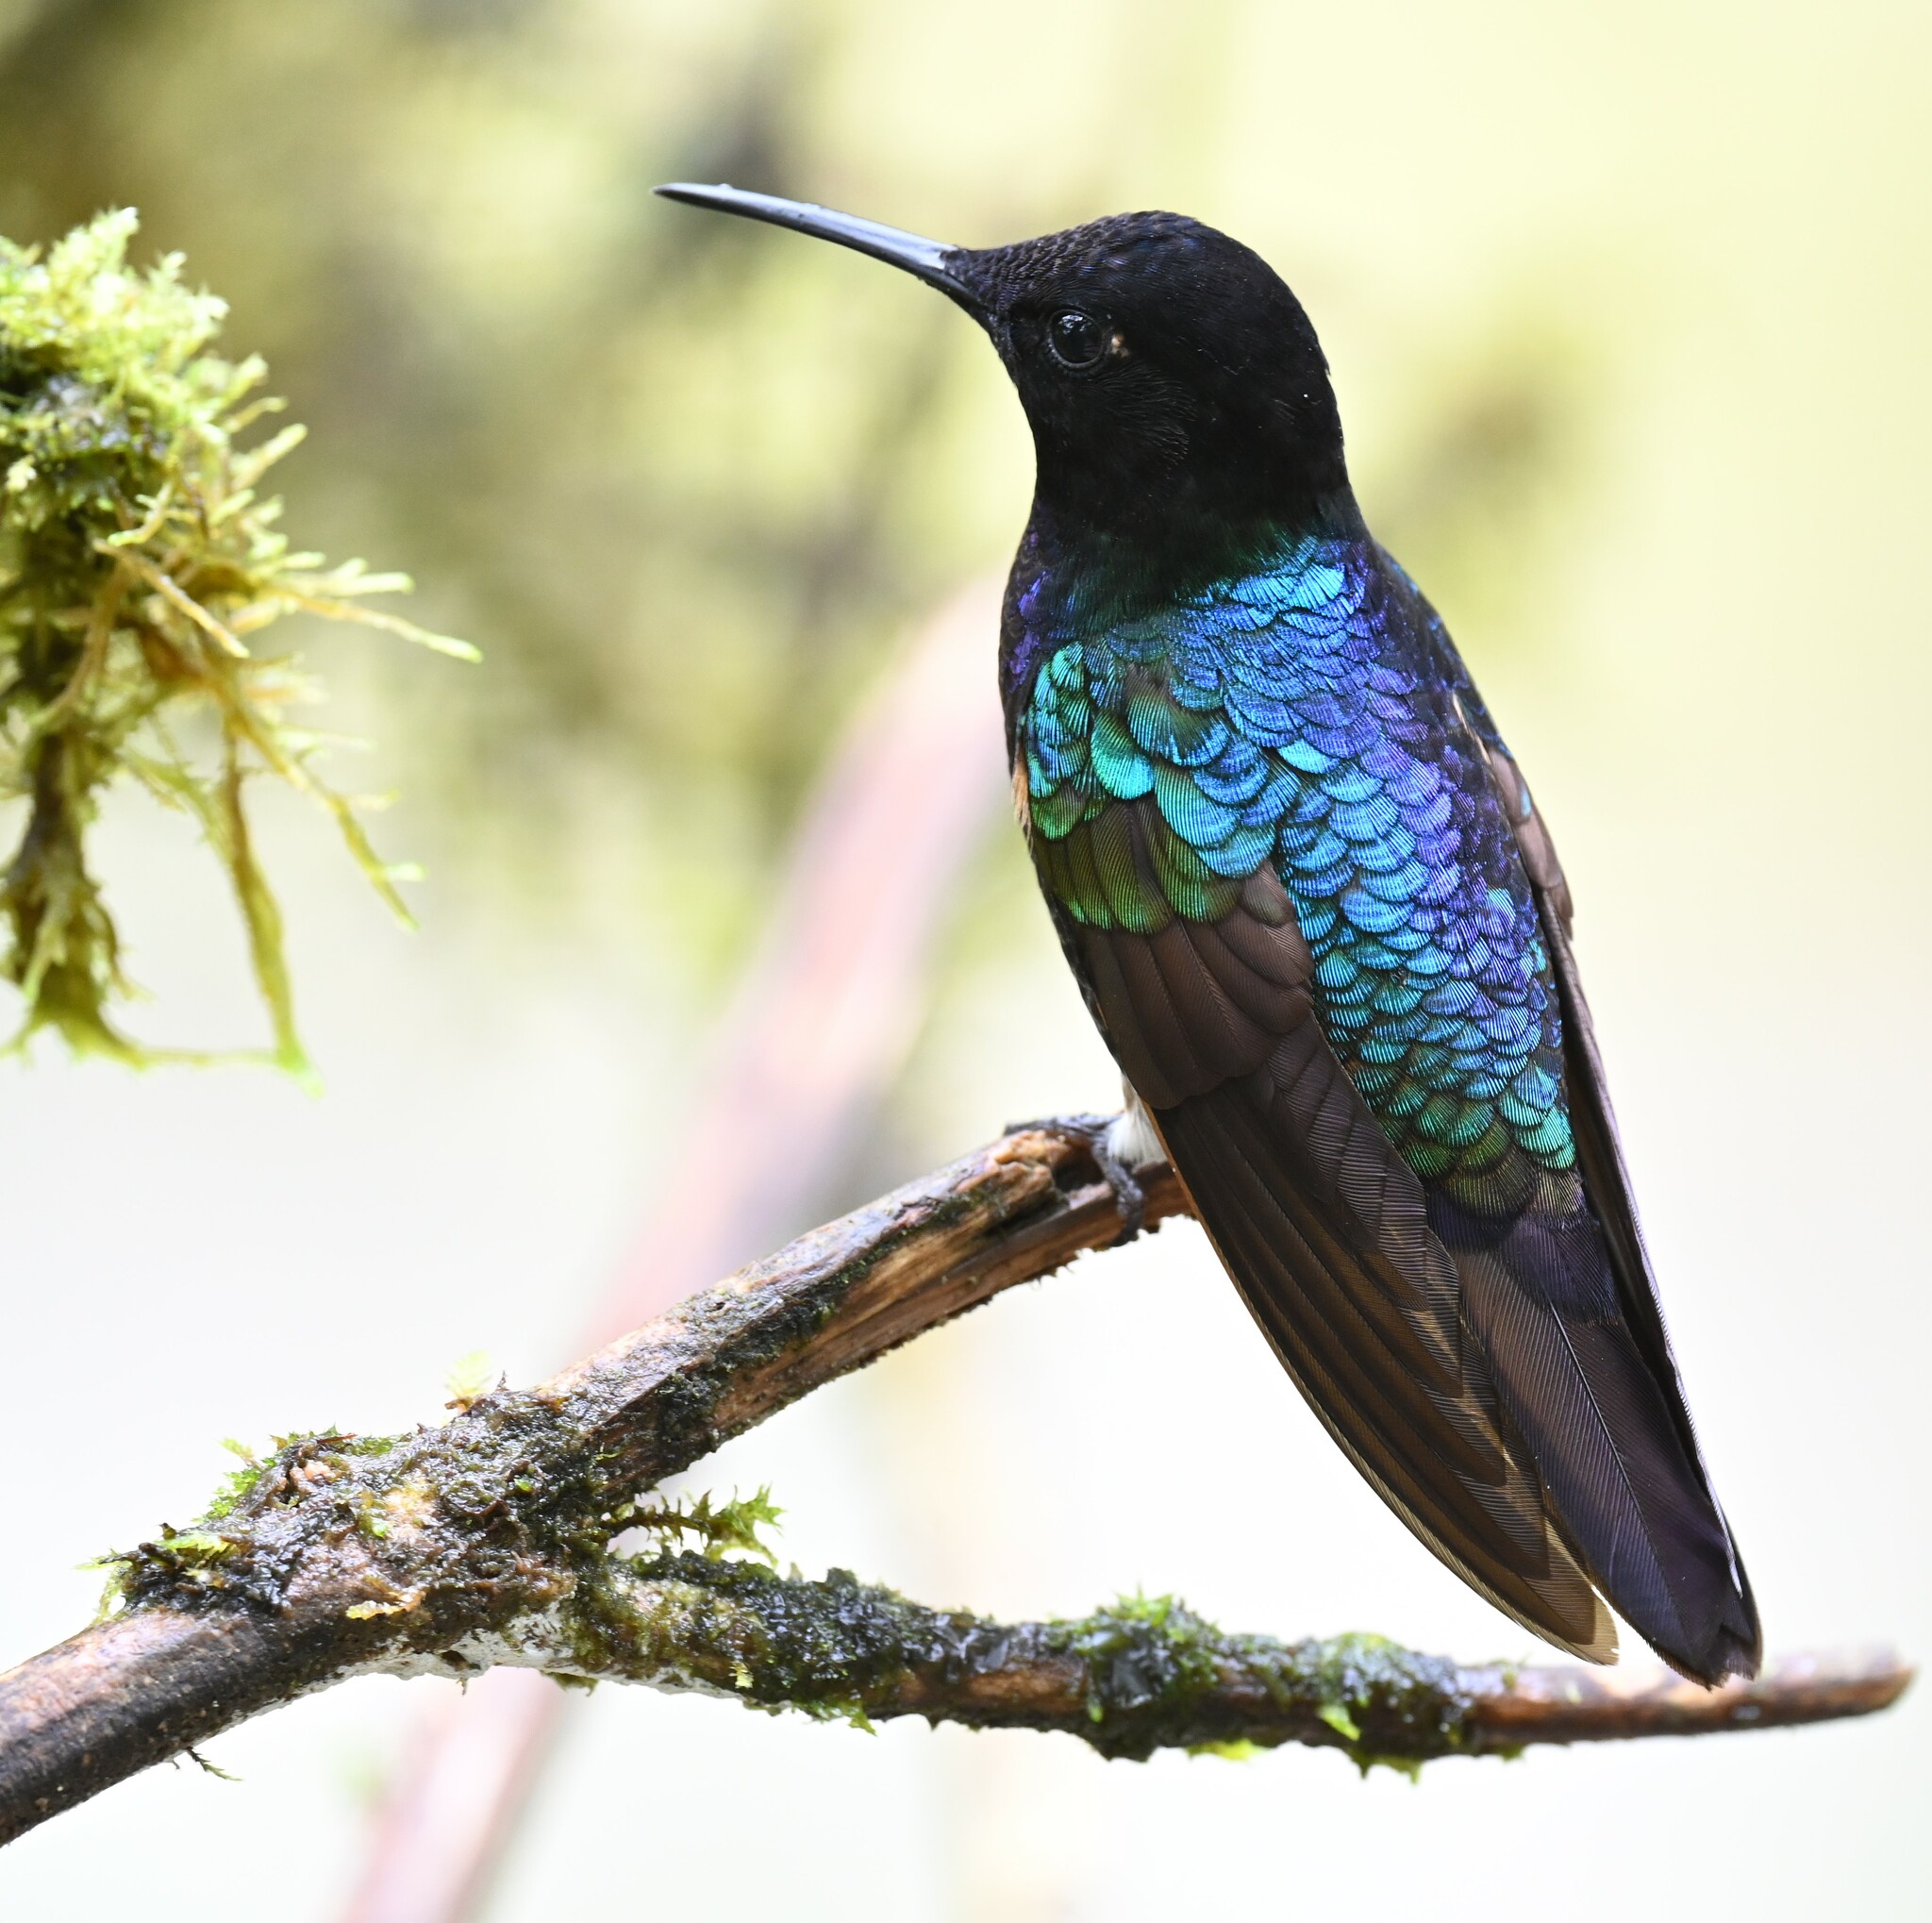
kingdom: Animalia
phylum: Chordata
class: Aves
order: Apodiformes
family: Trochilidae
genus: Boissonneaua
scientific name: Boissonneaua jardini
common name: Velvet-purple coronet
